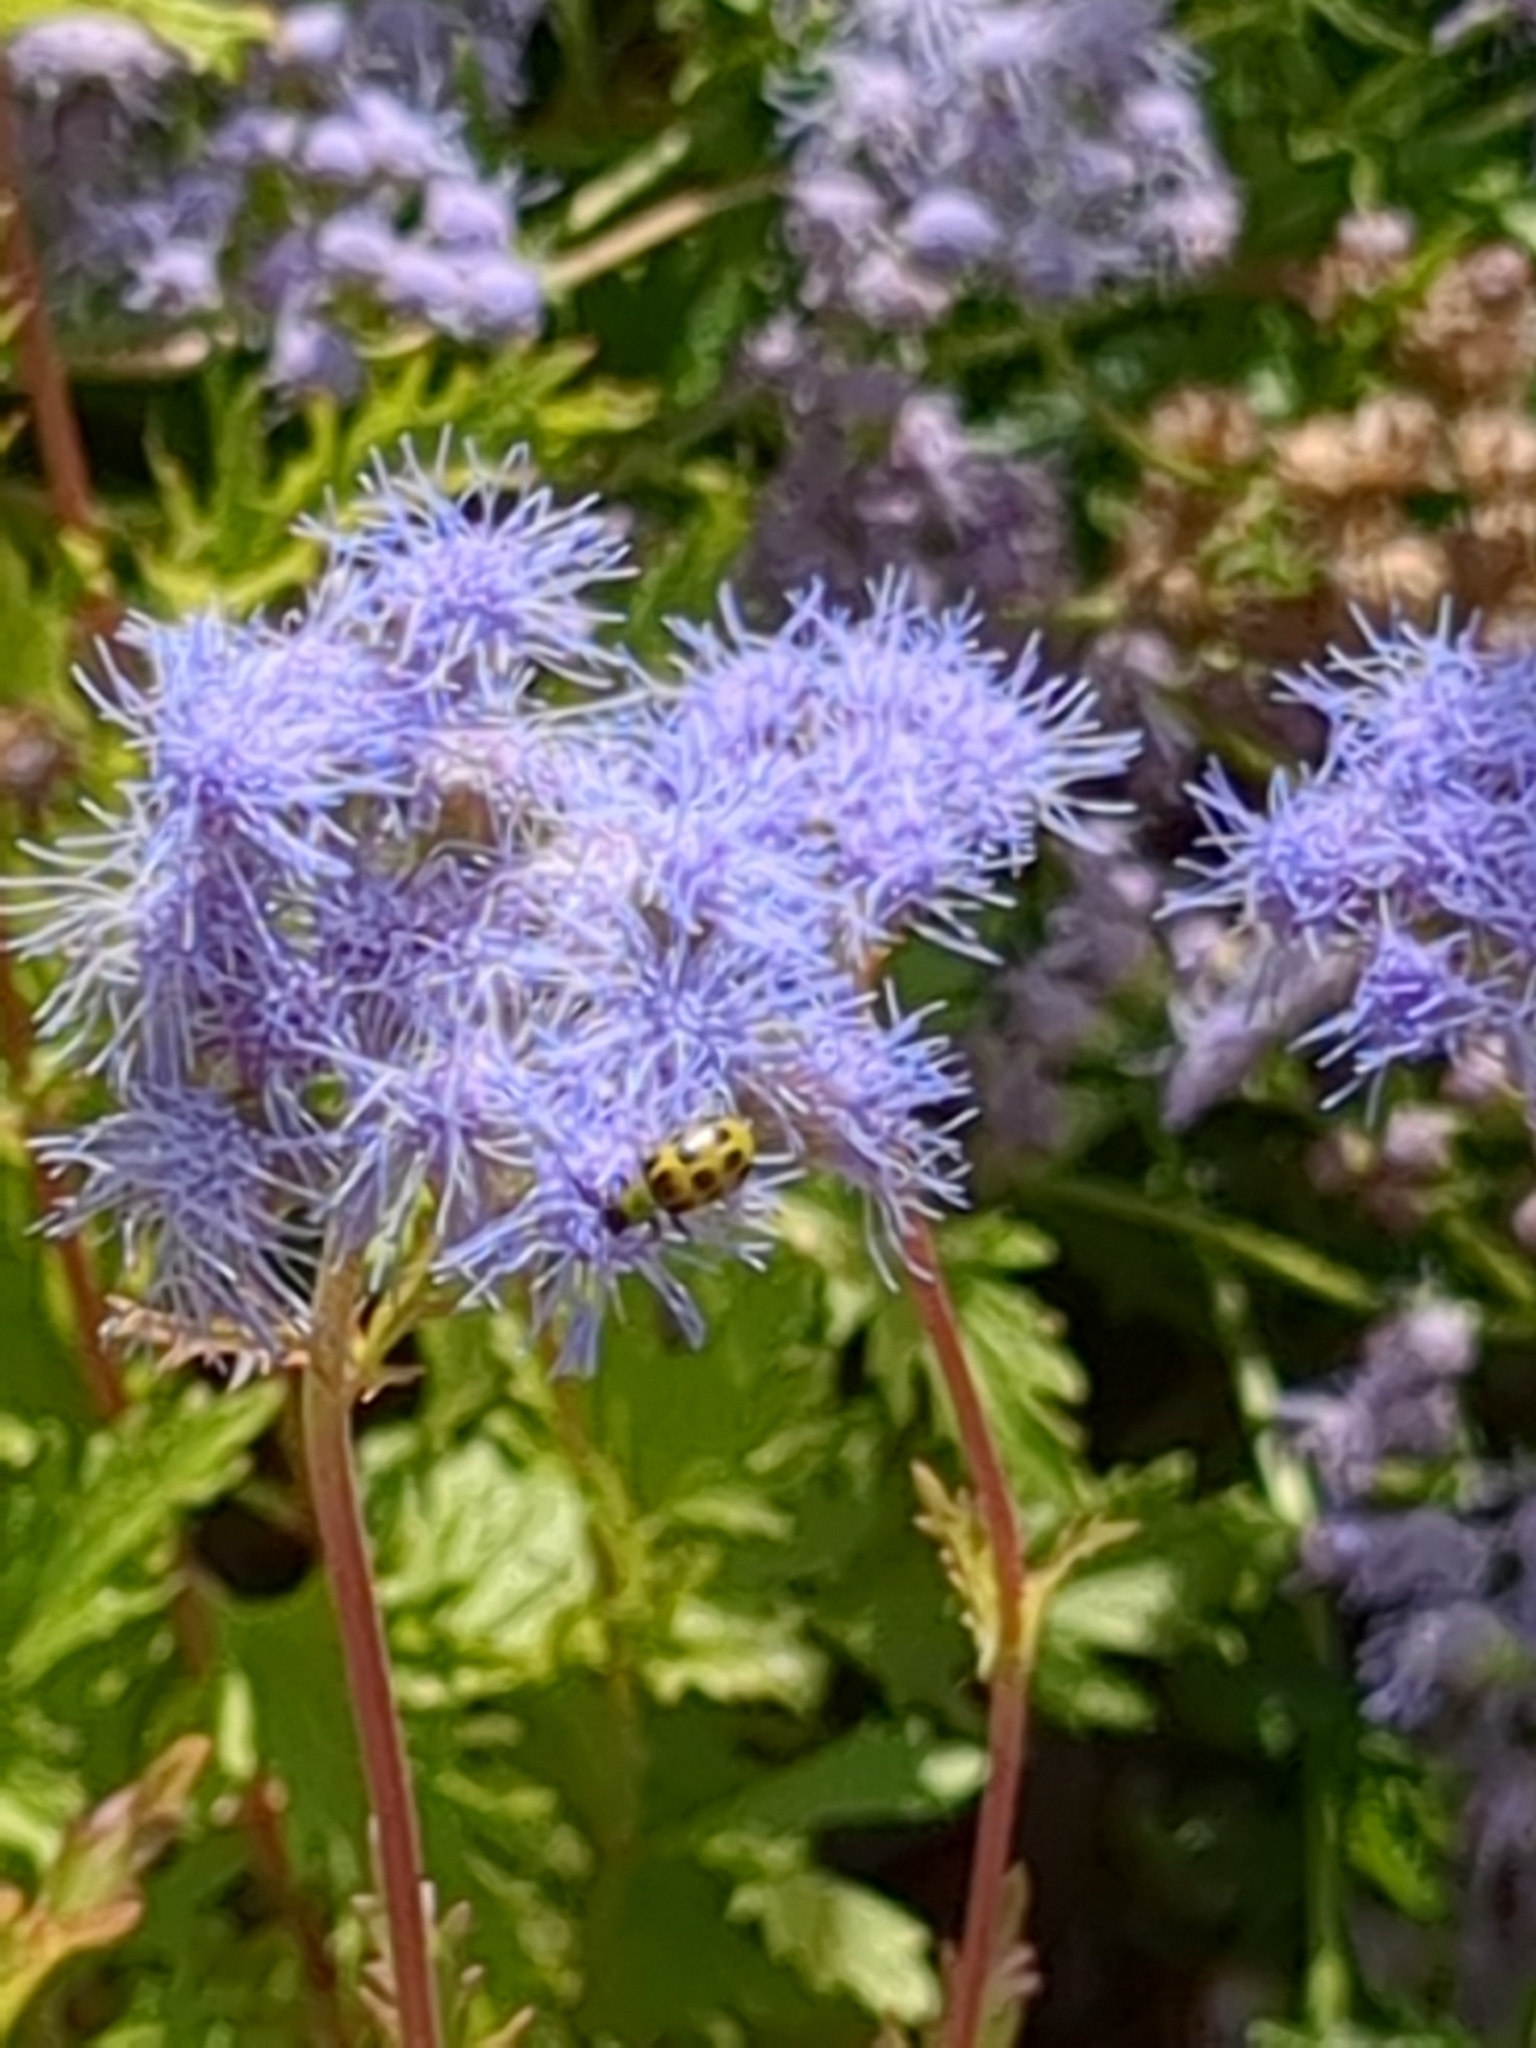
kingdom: Animalia
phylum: Arthropoda
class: Insecta
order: Coleoptera
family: Chrysomelidae
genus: Diabrotica
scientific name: Diabrotica undecimpunctata
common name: Spotted cucumber beetle
